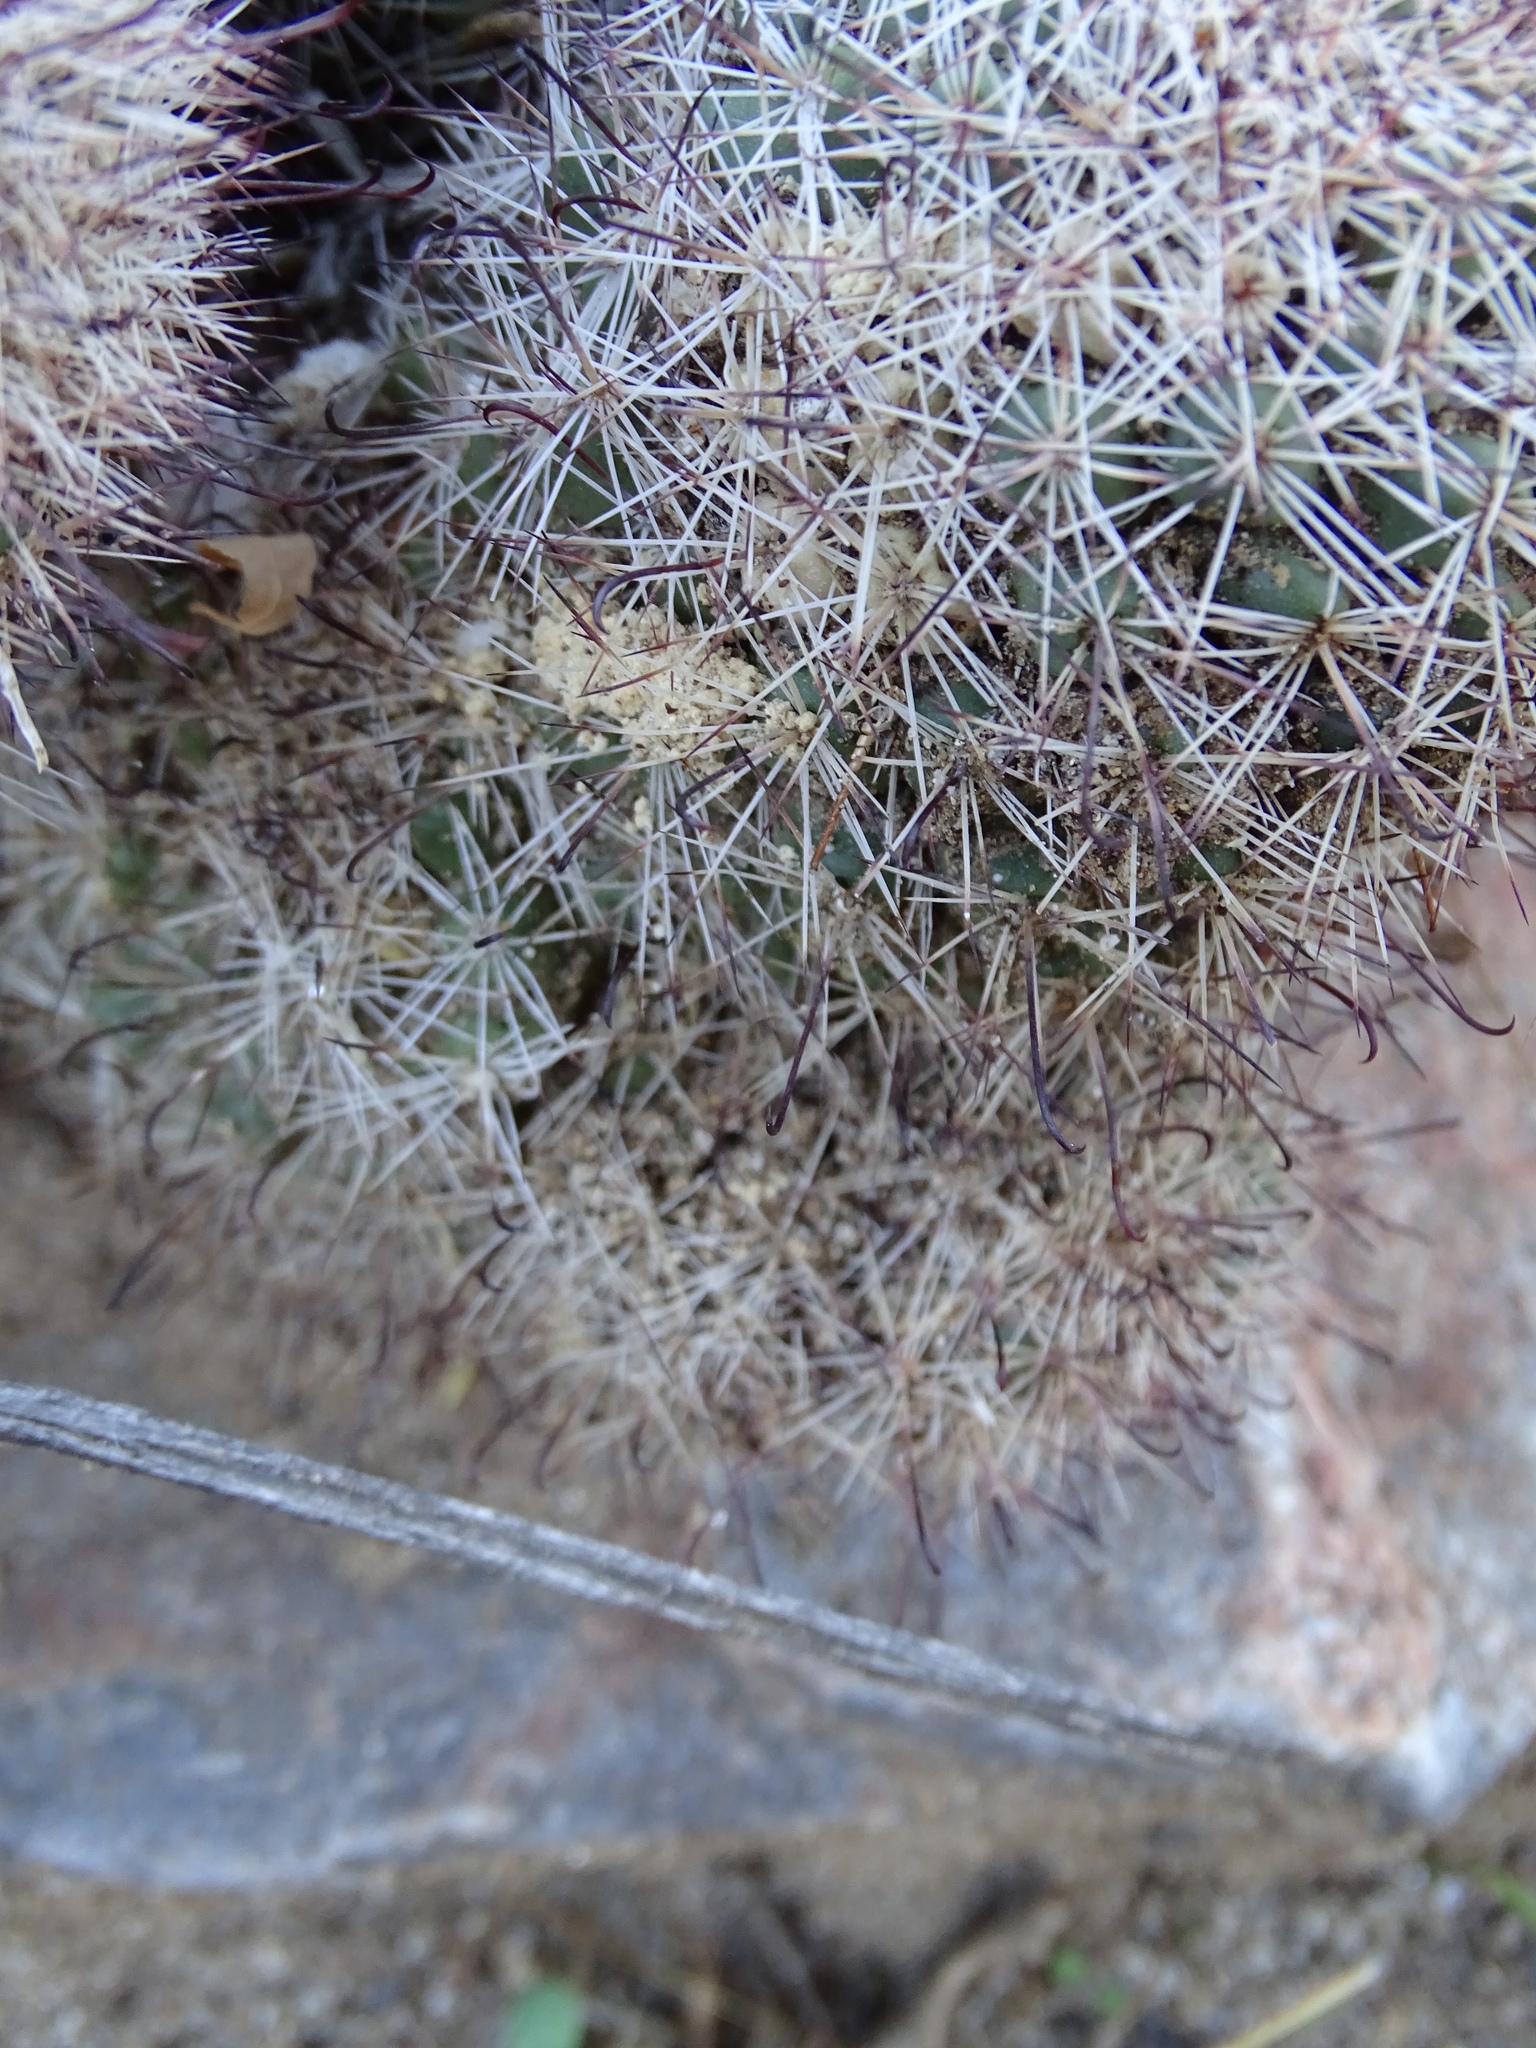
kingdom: Plantae
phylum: Tracheophyta
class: Magnoliopsida
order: Caryophyllales
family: Cactaceae
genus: Cochemiea
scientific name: Cochemiea dioica
